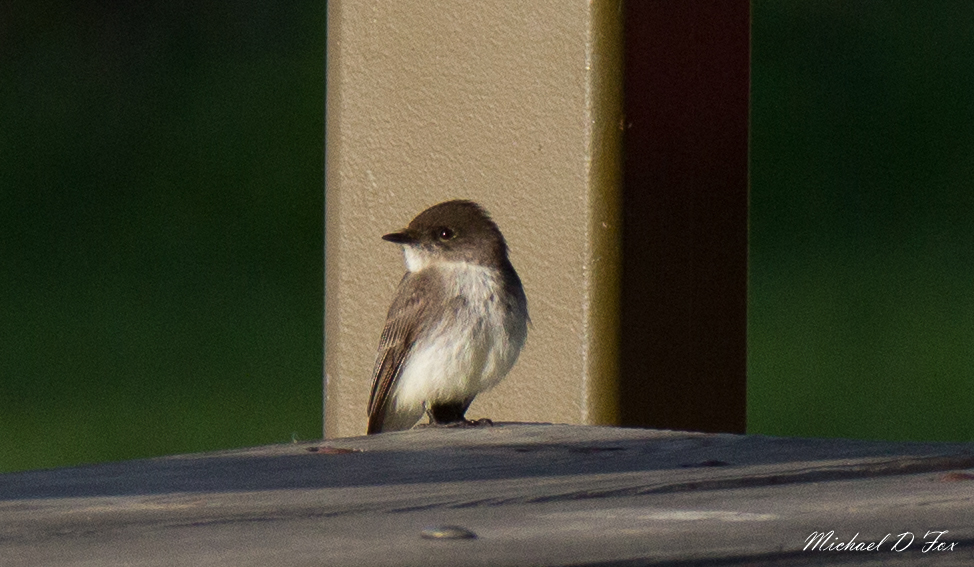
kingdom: Animalia
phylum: Chordata
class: Aves
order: Passeriformes
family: Tyrannidae
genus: Sayornis
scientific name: Sayornis phoebe
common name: Eastern phoebe
